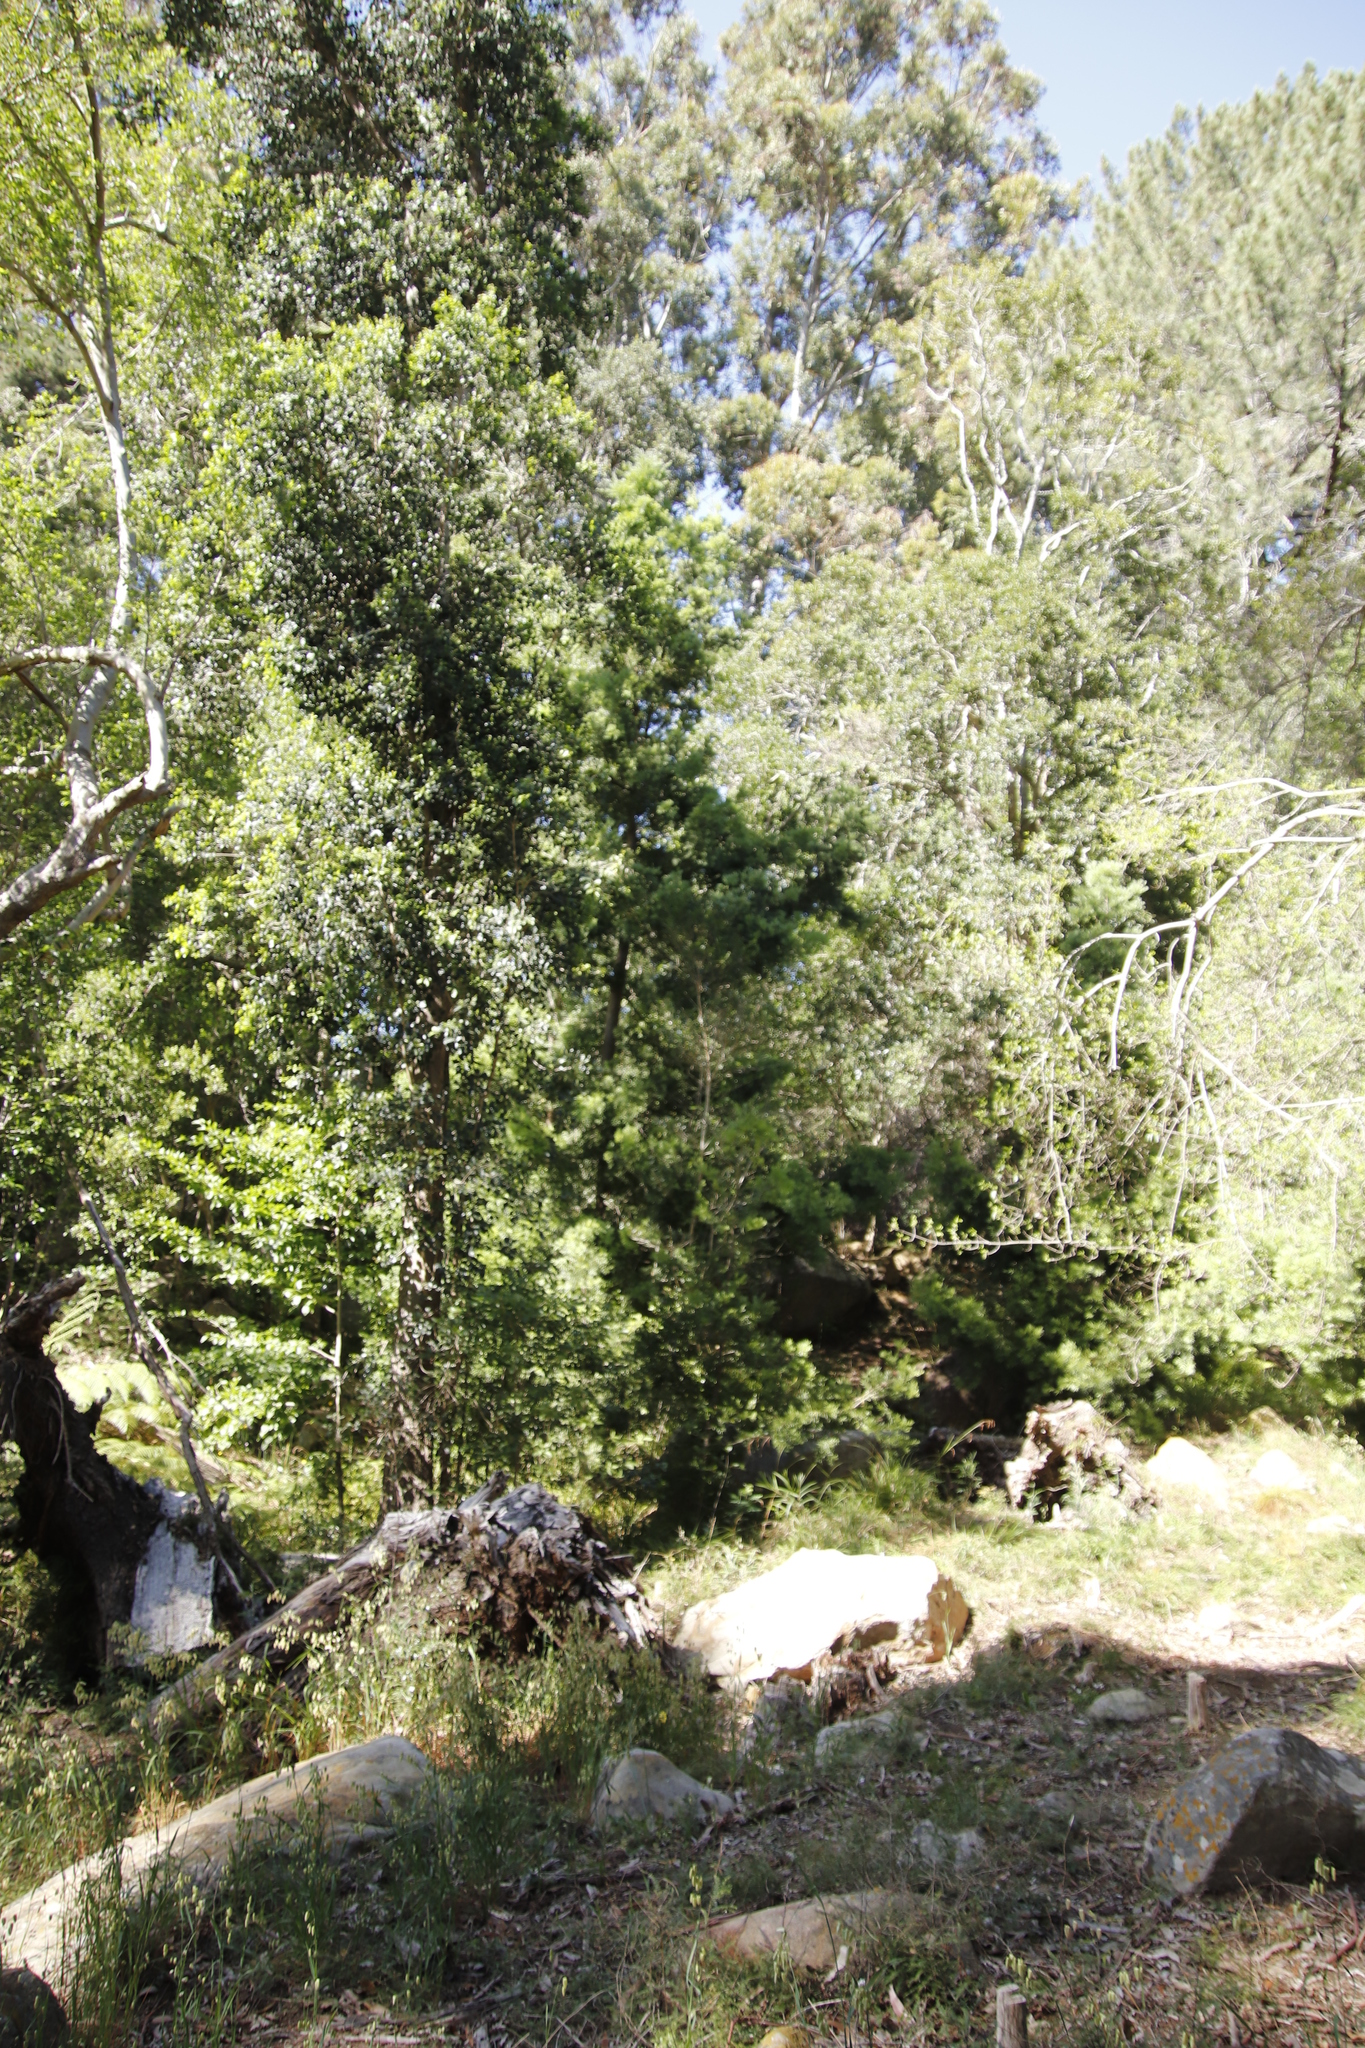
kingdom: Plantae
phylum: Tracheophyta
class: Pinopsida
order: Pinales
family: Podocarpaceae
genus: Afrocarpus
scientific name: Afrocarpus falcatus
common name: Bastard yellowwood
